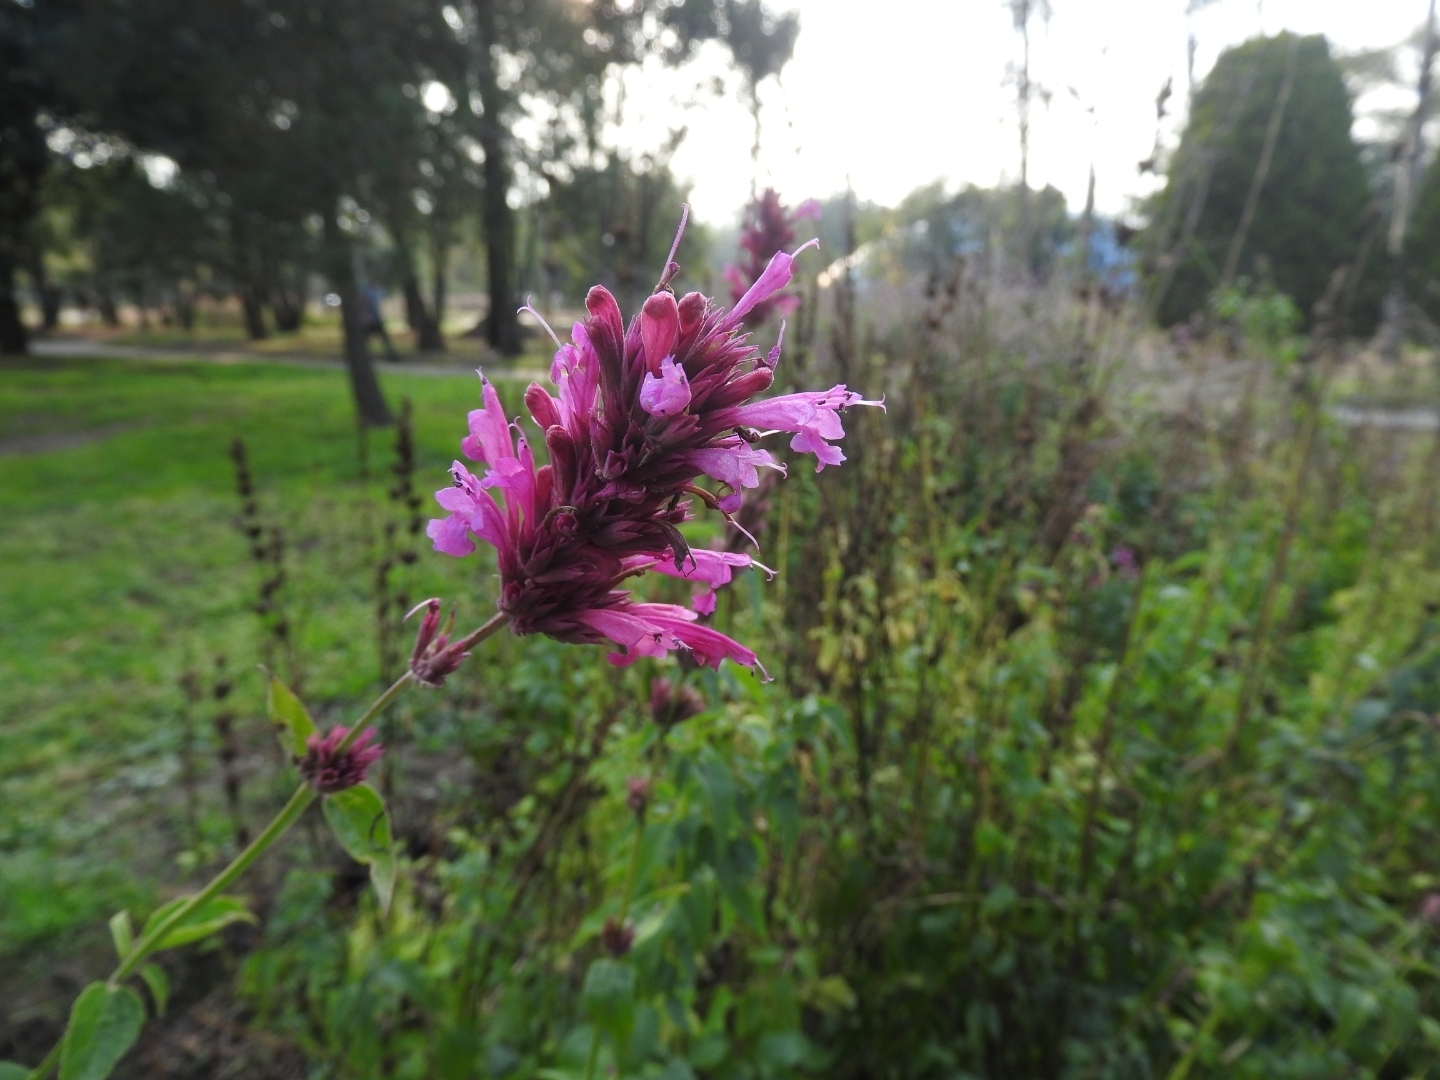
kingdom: Plantae
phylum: Tracheophyta
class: Magnoliopsida
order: Lamiales
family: Lamiaceae
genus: Agastache
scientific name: Agastache mexicana
